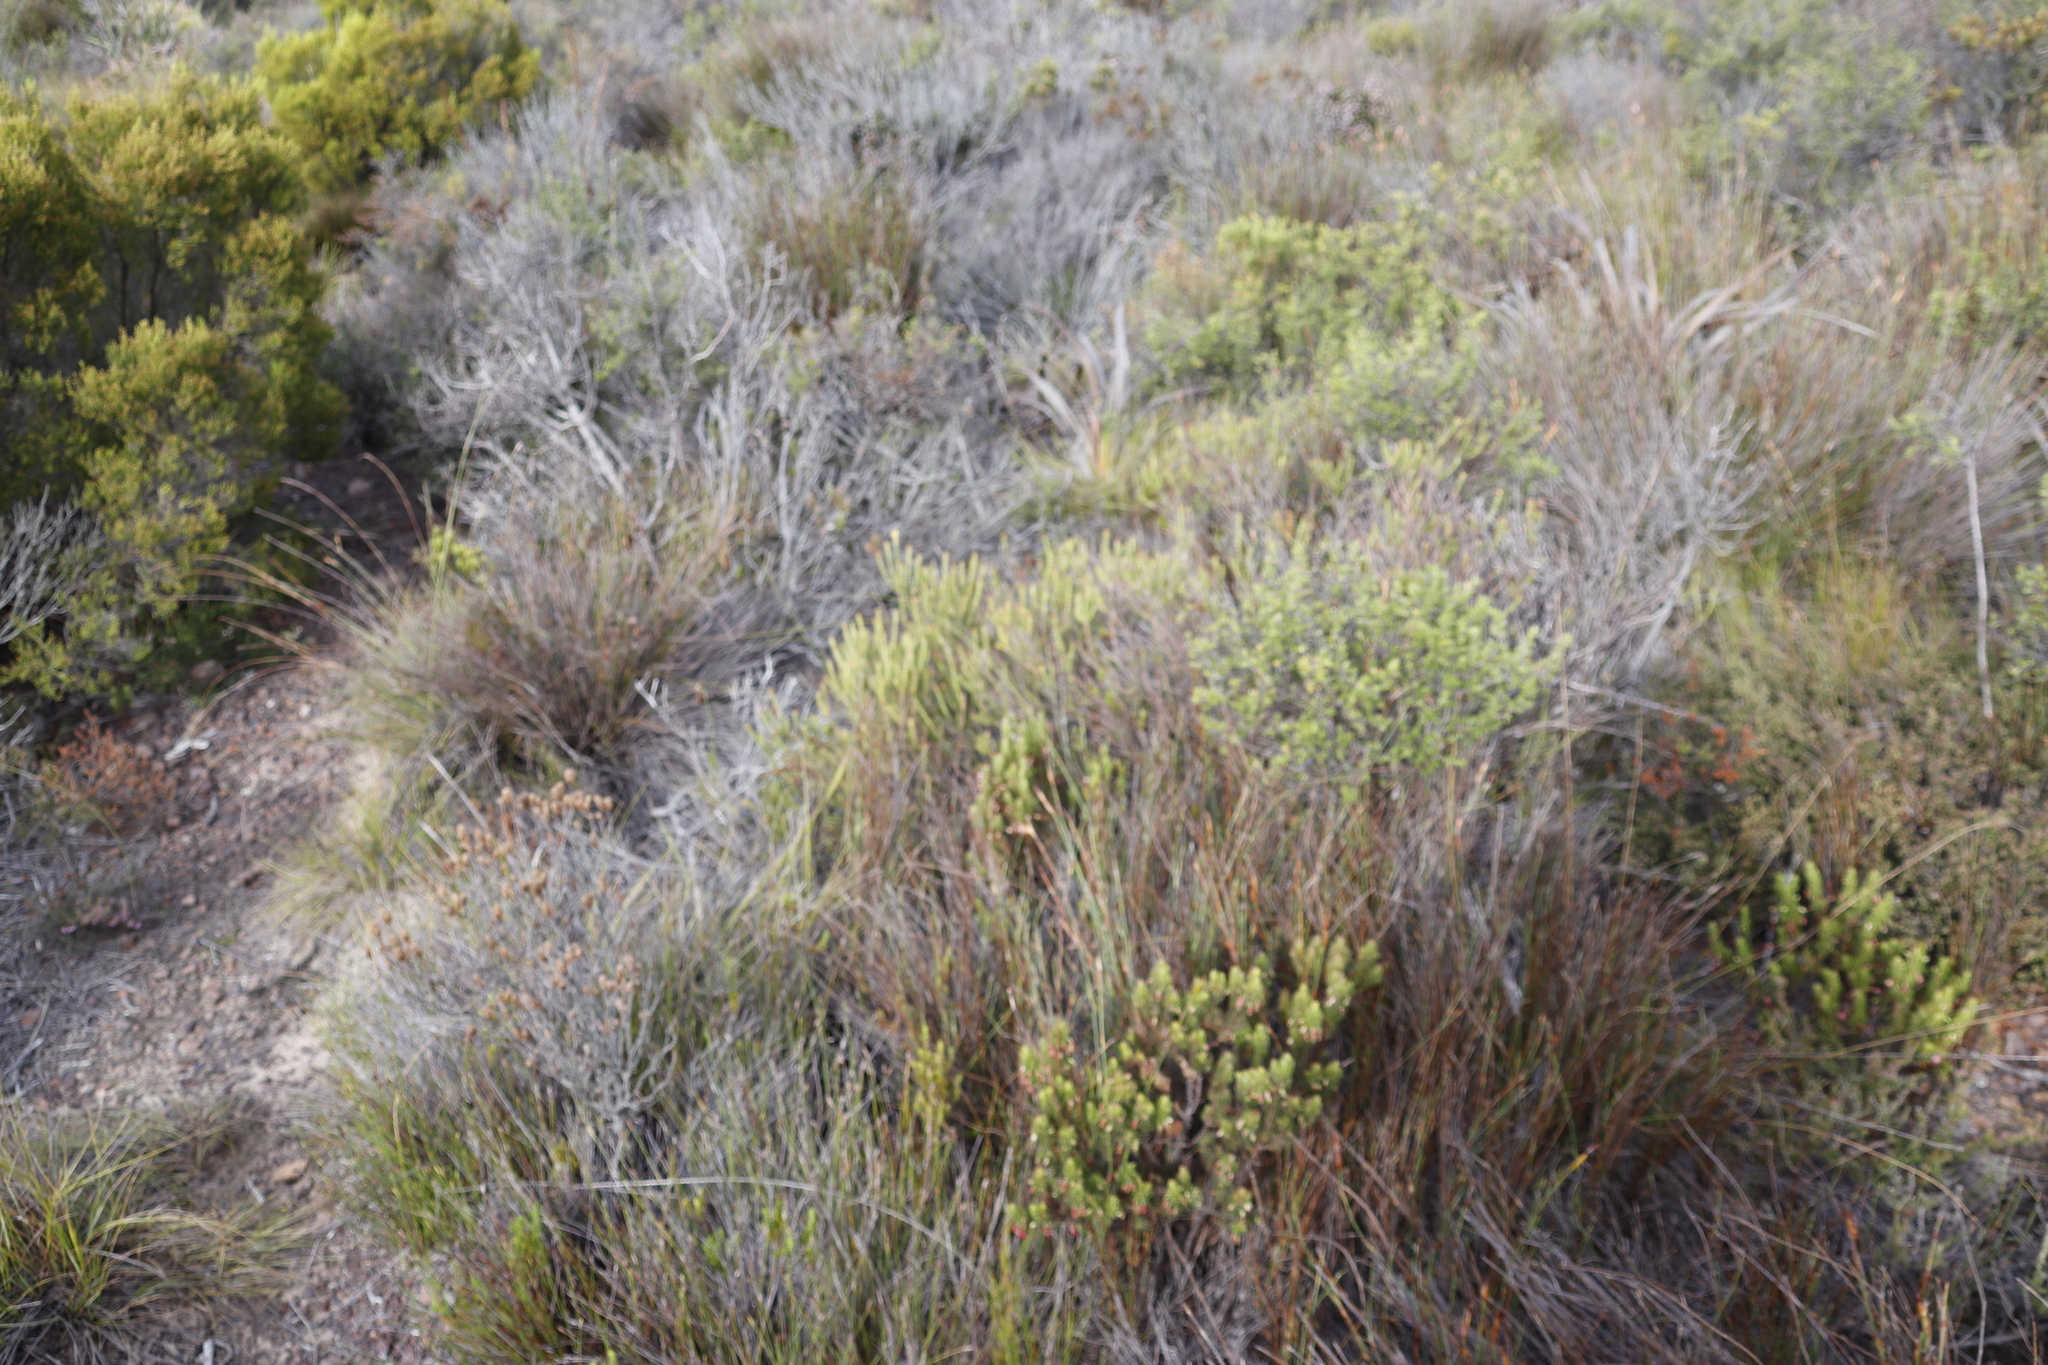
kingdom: Plantae
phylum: Tracheophyta
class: Magnoliopsida
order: Asterales
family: Asteraceae
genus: Metalasia
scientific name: Metalasia densa
